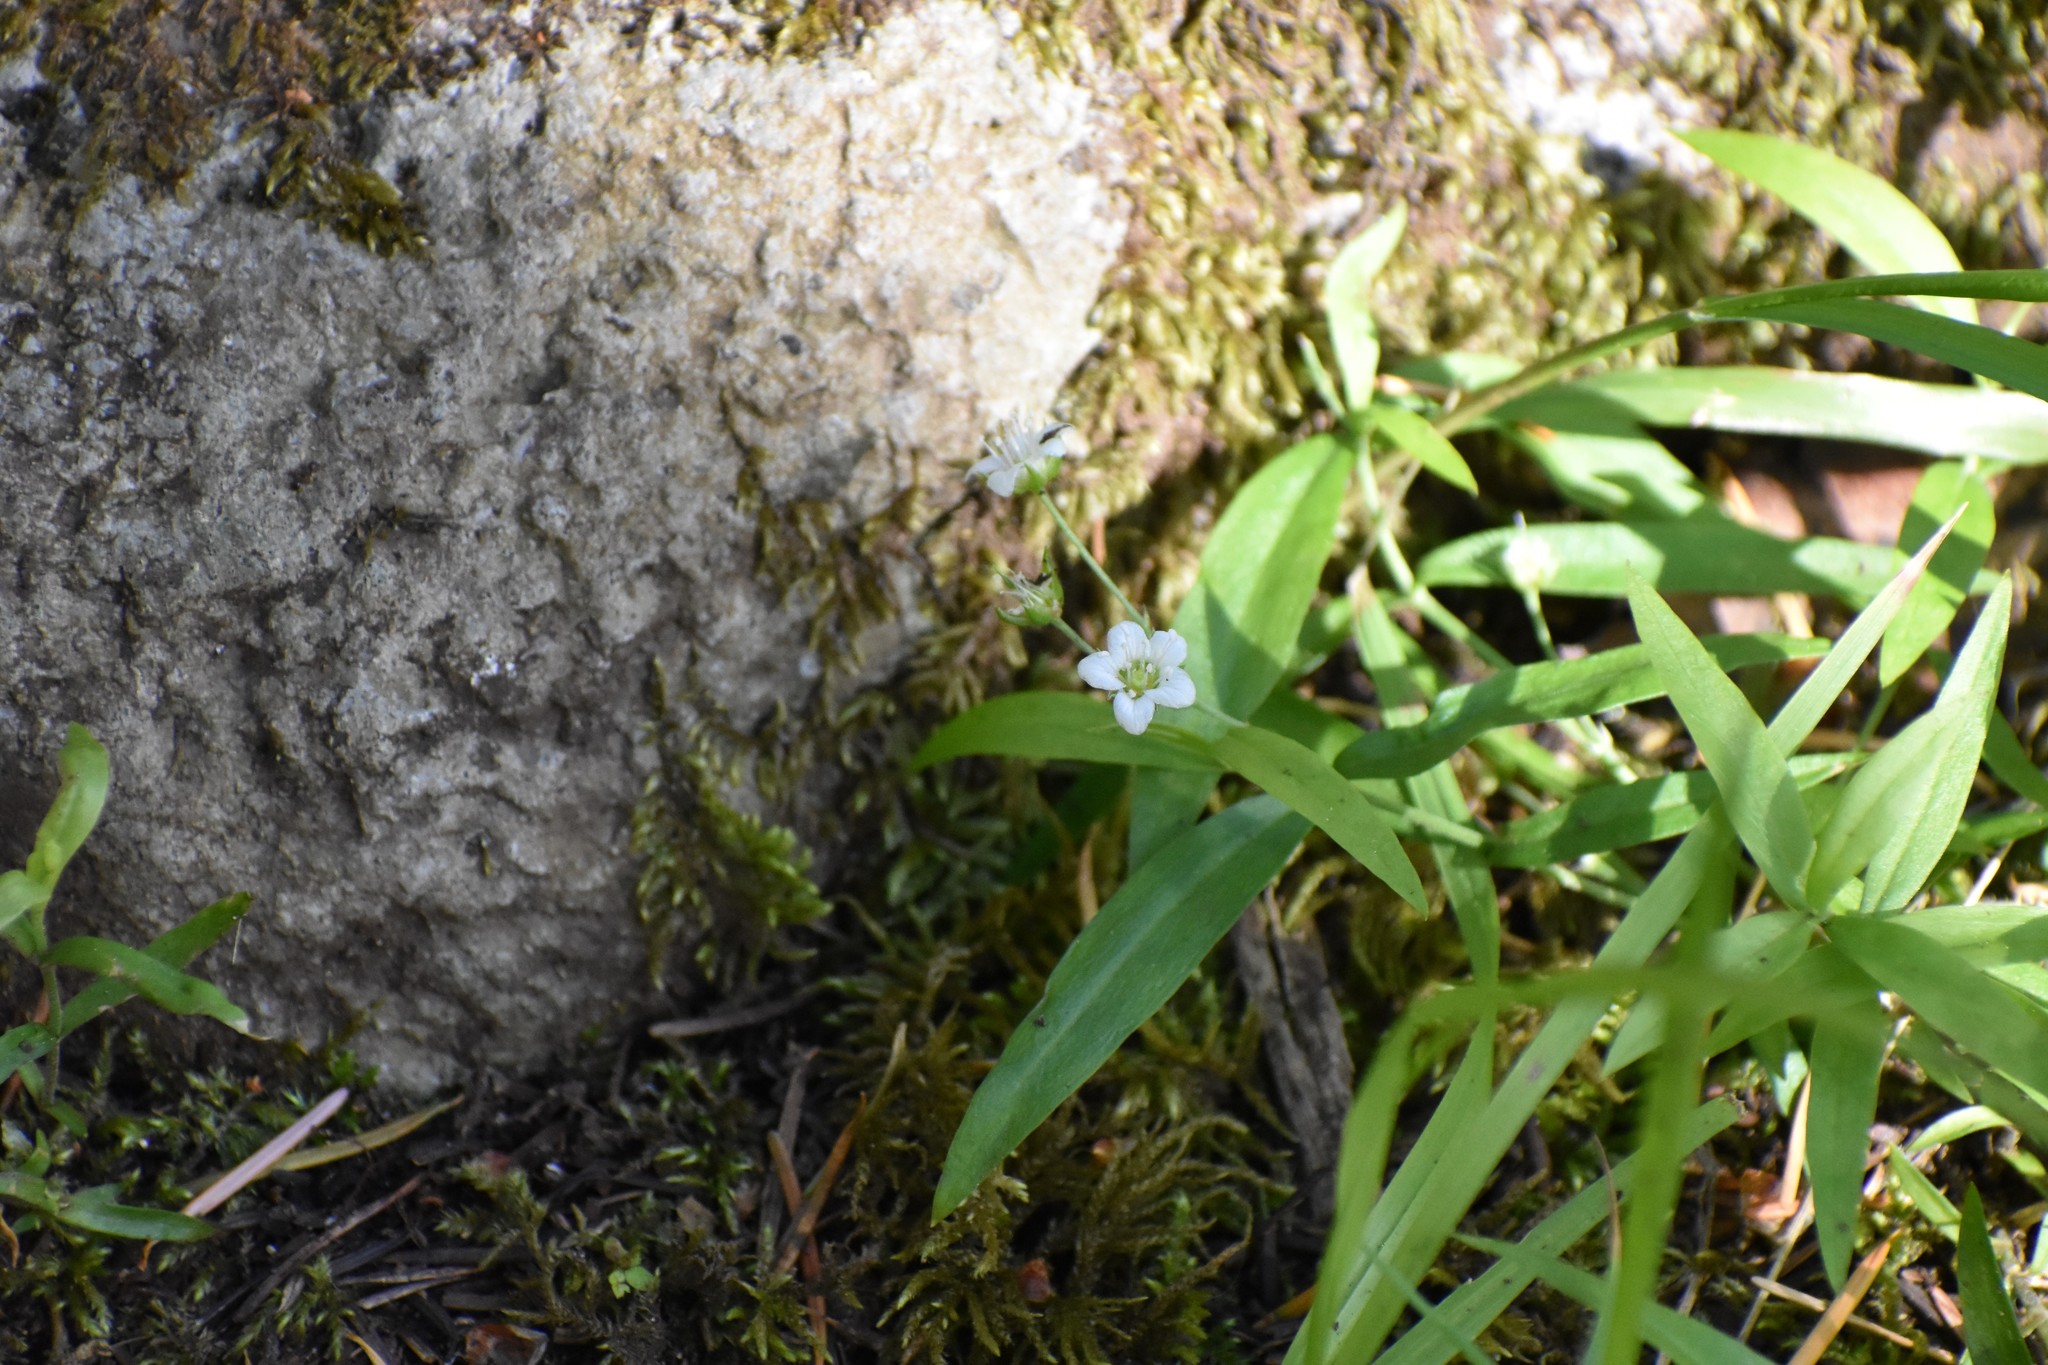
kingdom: Plantae
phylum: Tracheophyta
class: Magnoliopsida
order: Caryophyllales
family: Caryophyllaceae
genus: Moehringia
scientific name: Moehringia macrophylla
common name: Big-leaf sandwort
